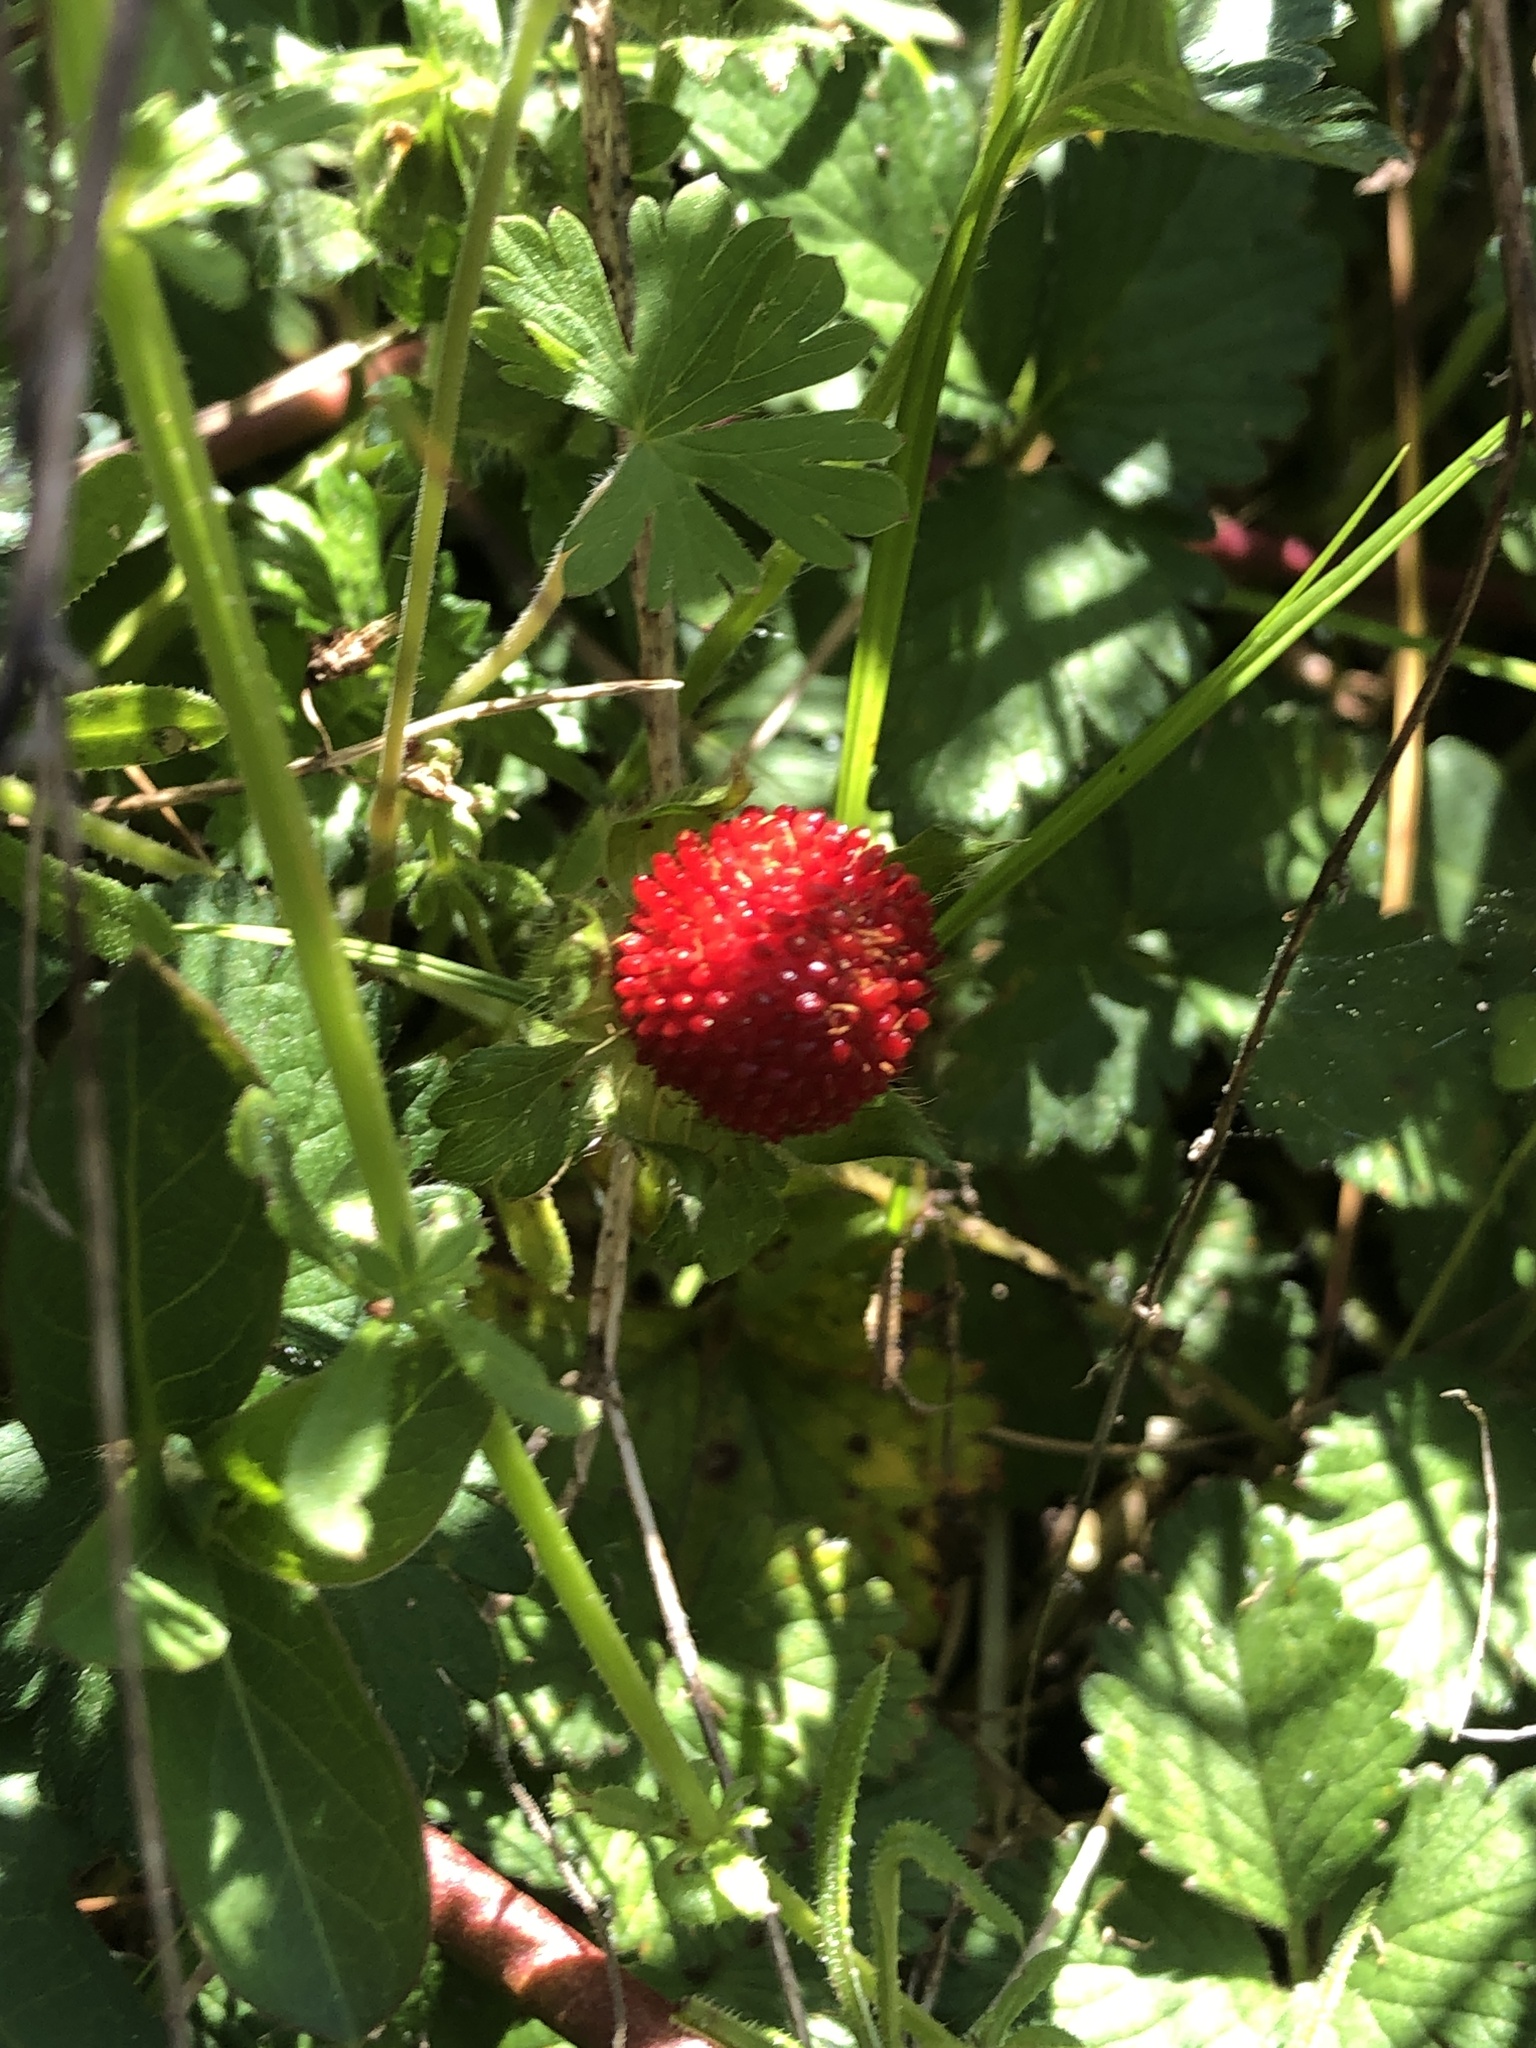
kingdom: Plantae
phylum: Tracheophyta
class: Magnoliopsida
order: Rosales
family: Rosaceae
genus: Potentilla
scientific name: Potentilla indica
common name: Yellow-flowered strawberry
